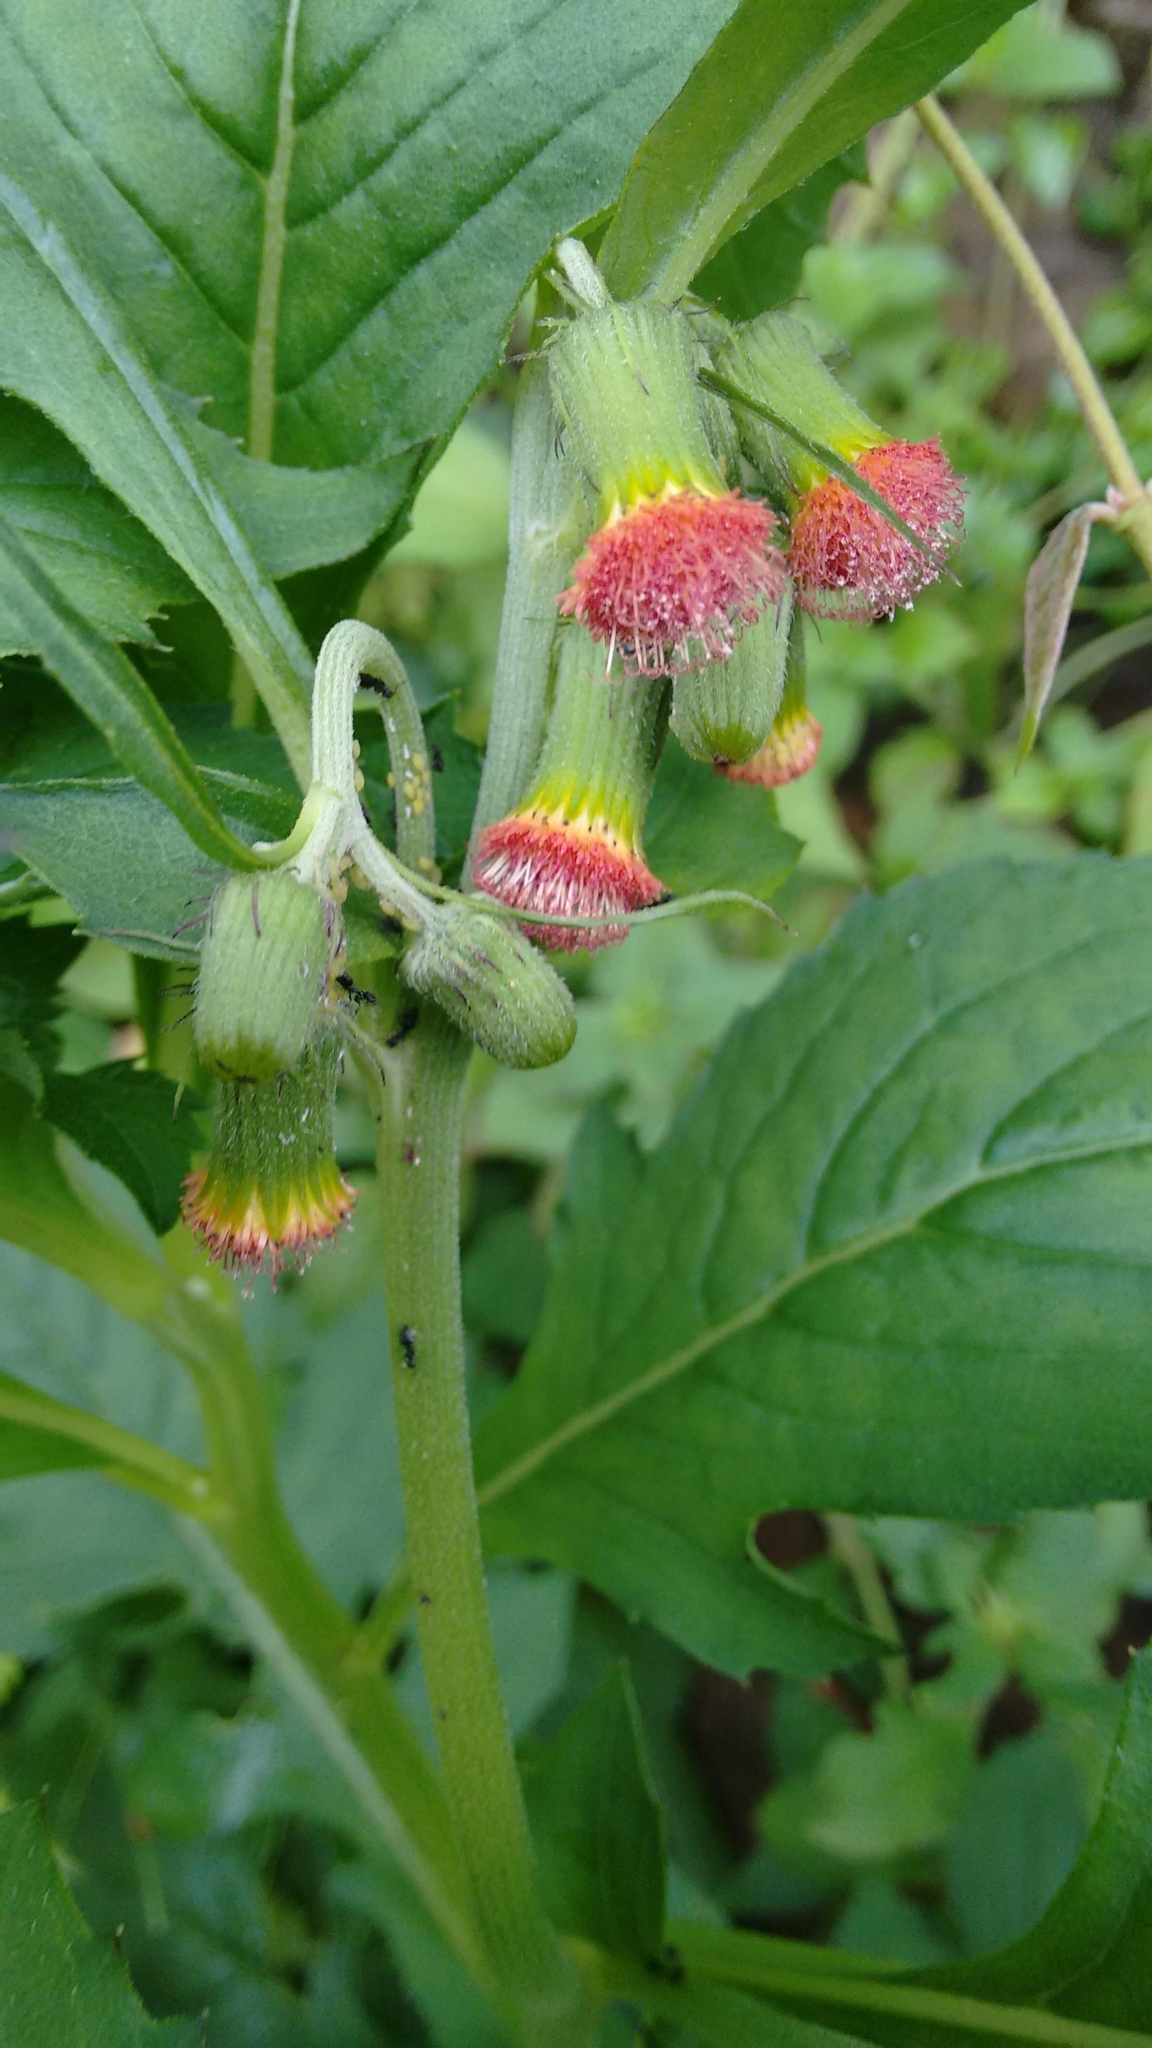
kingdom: Plantae
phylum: Tracheophyta
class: Magnoliopsida
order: Asterales
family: Asteraceae
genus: Crassocephalum
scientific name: Crassocephalum crepidioides
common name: Redflower ragleaf
